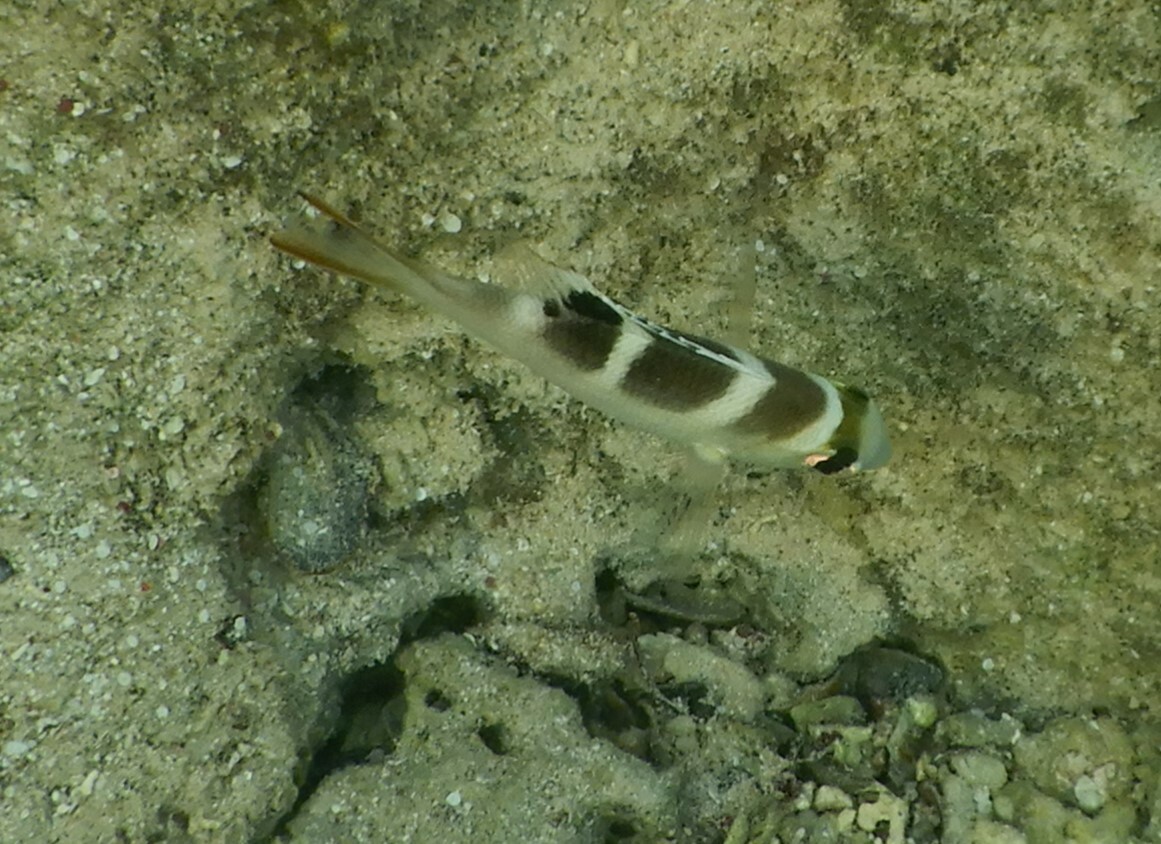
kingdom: Animalia
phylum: Chordata
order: Perciformes
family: Lethrinidae
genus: Monotaxis
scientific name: Monotaxis grandoculis
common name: Bigeye emperor
